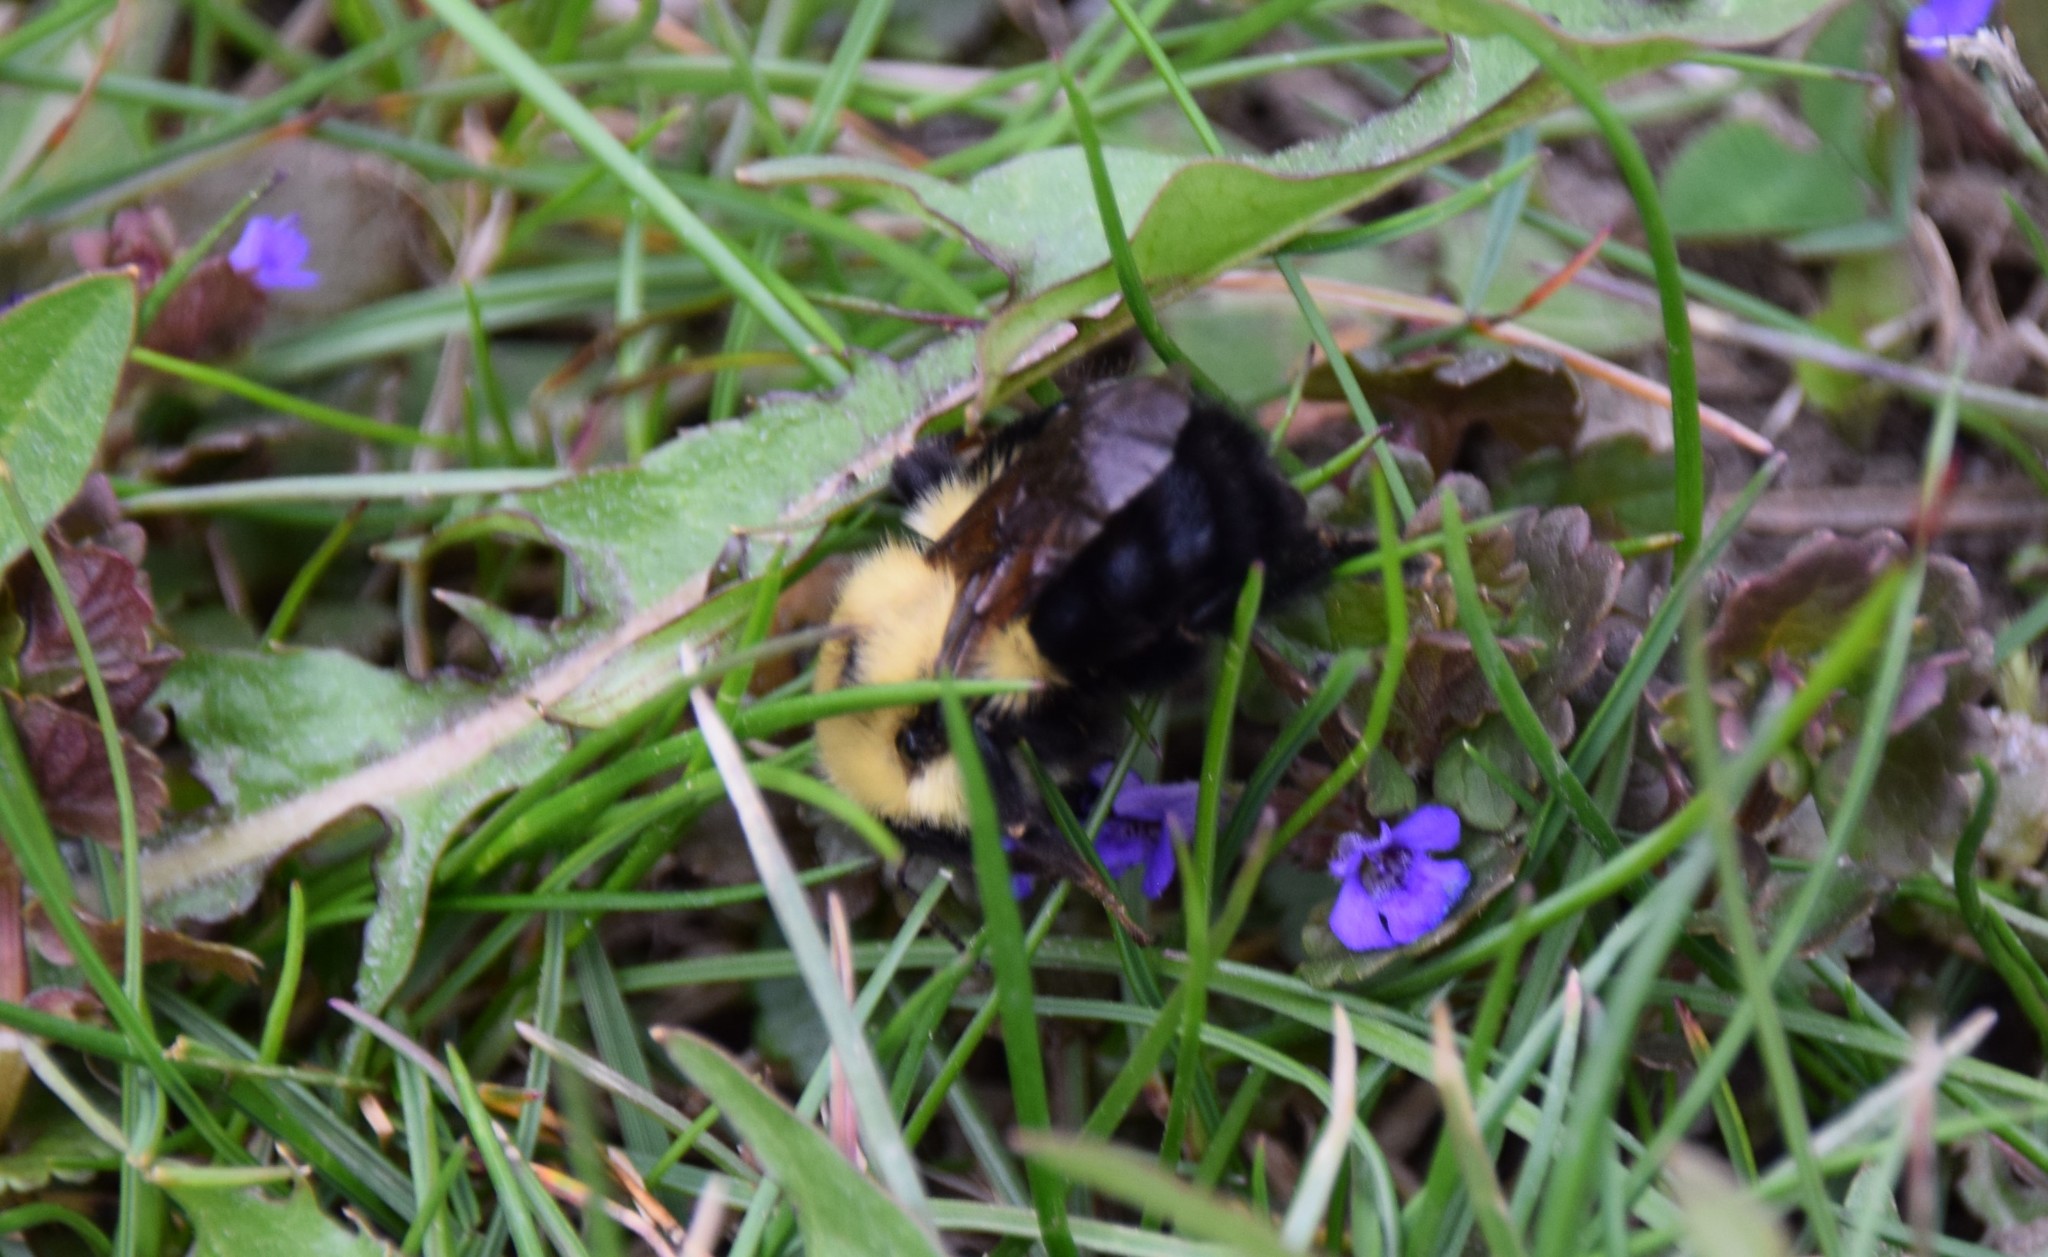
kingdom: Animalia
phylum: Arthropoda
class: Insecta
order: Hymenoptera
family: Apidae
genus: Bombus
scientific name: Bombus bimaculatus
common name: Two-spotted bumble bee
